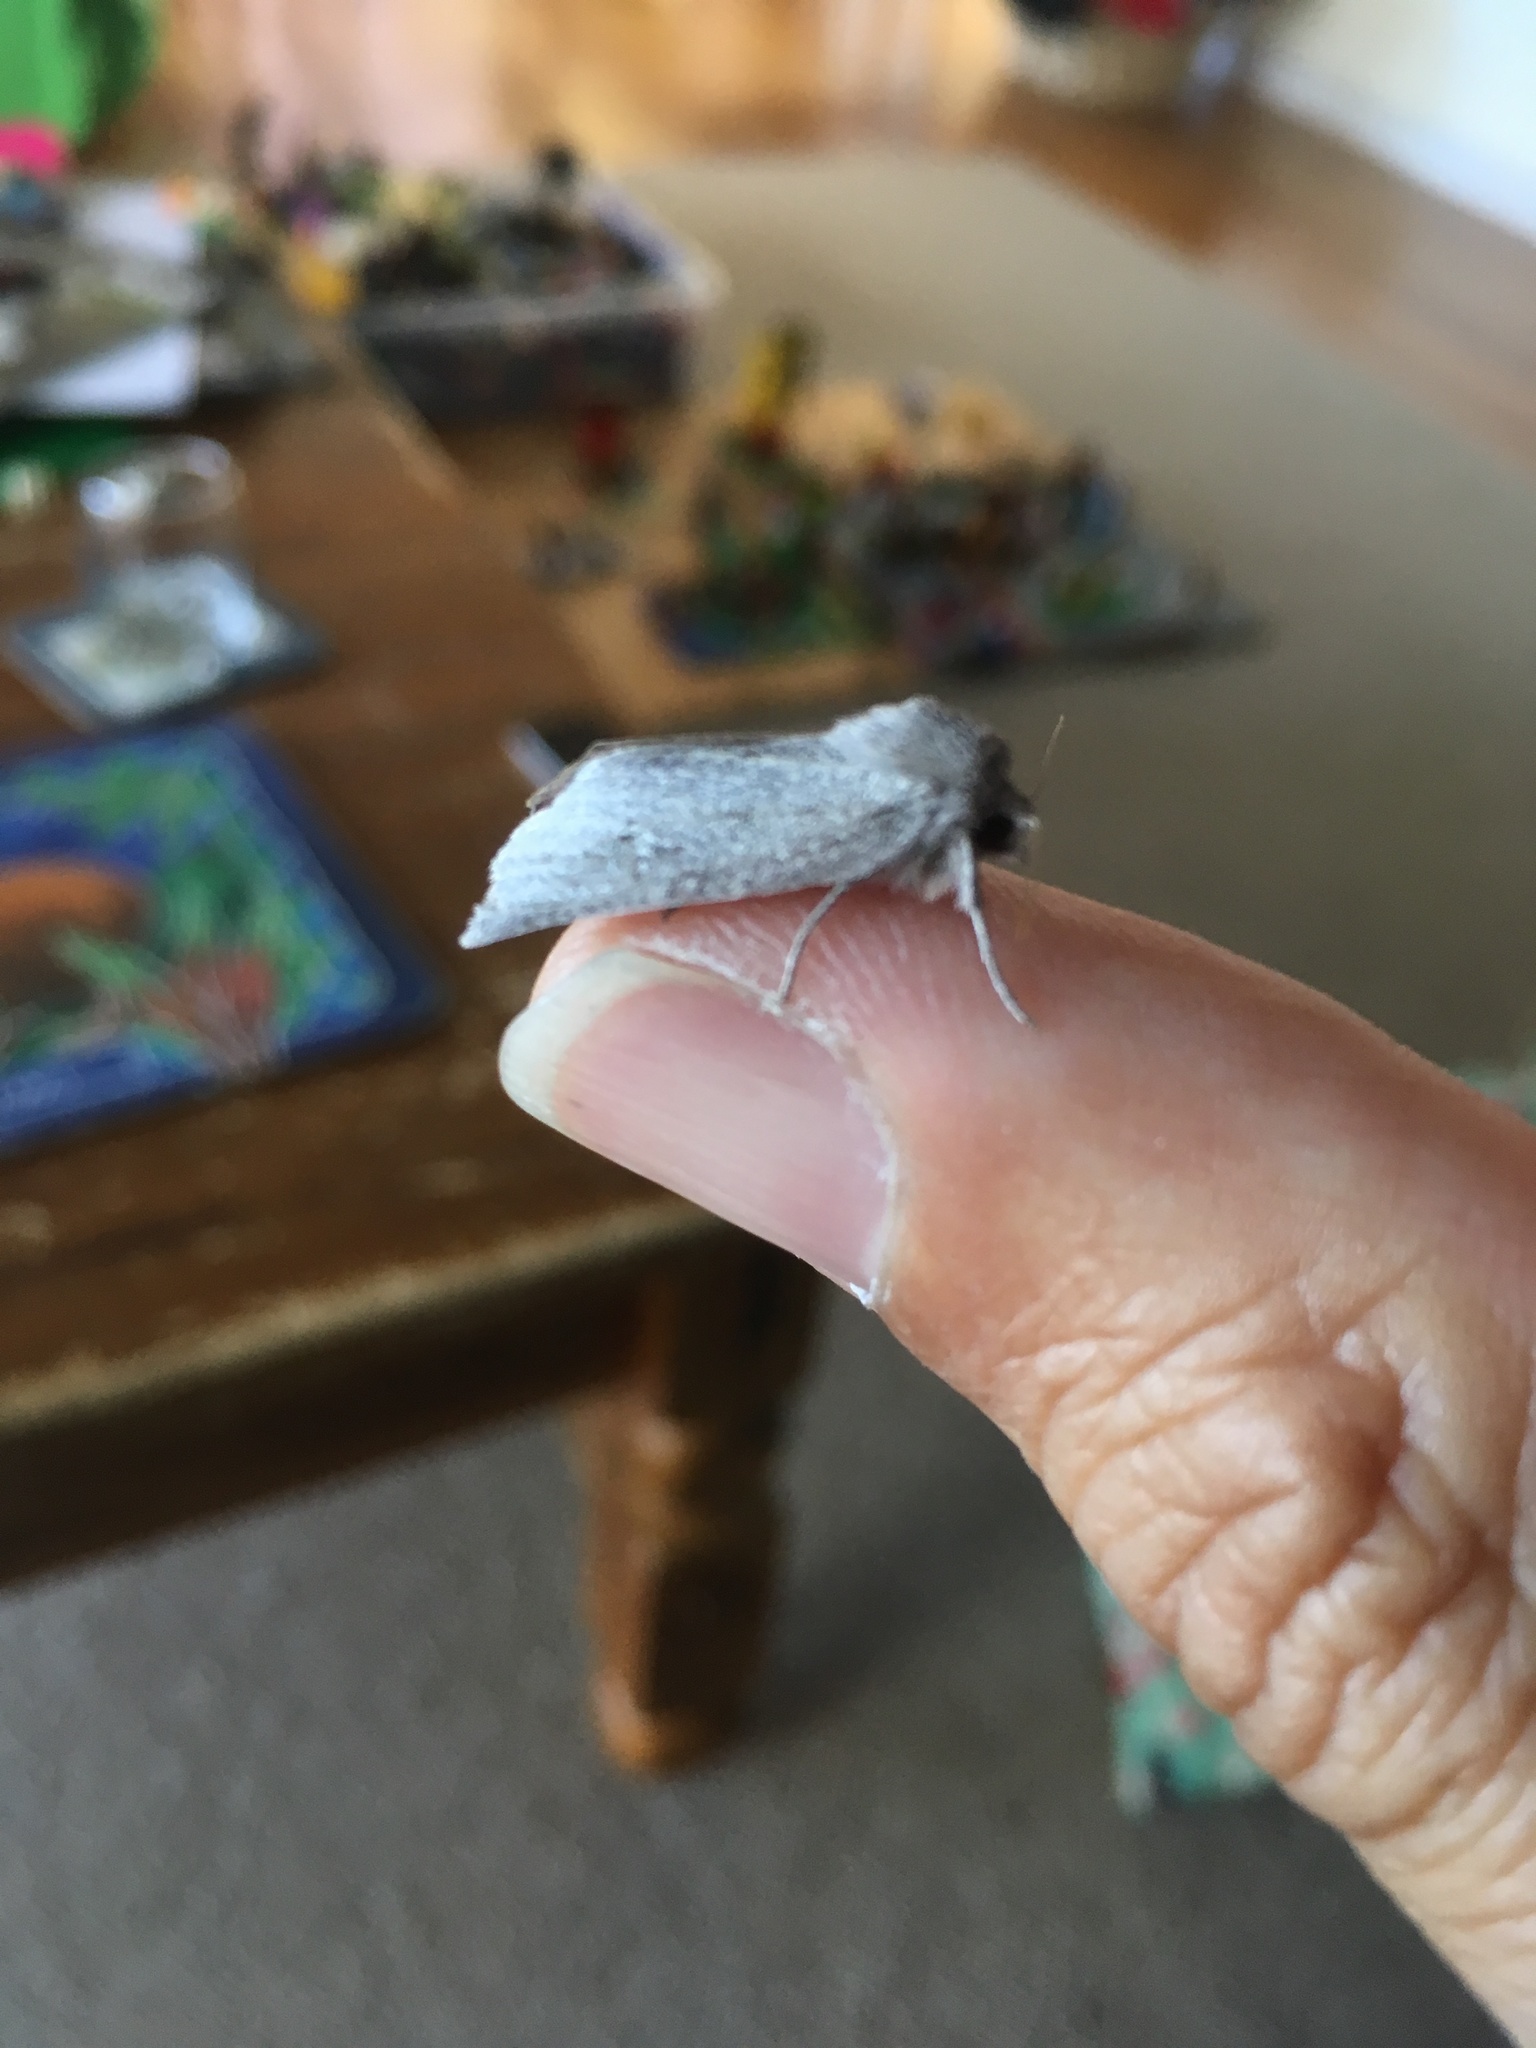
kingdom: Animalia
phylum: Arthropoda
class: Insecta
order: Lepidoptera
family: Geometridae
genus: Declana
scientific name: Declana leptomera
